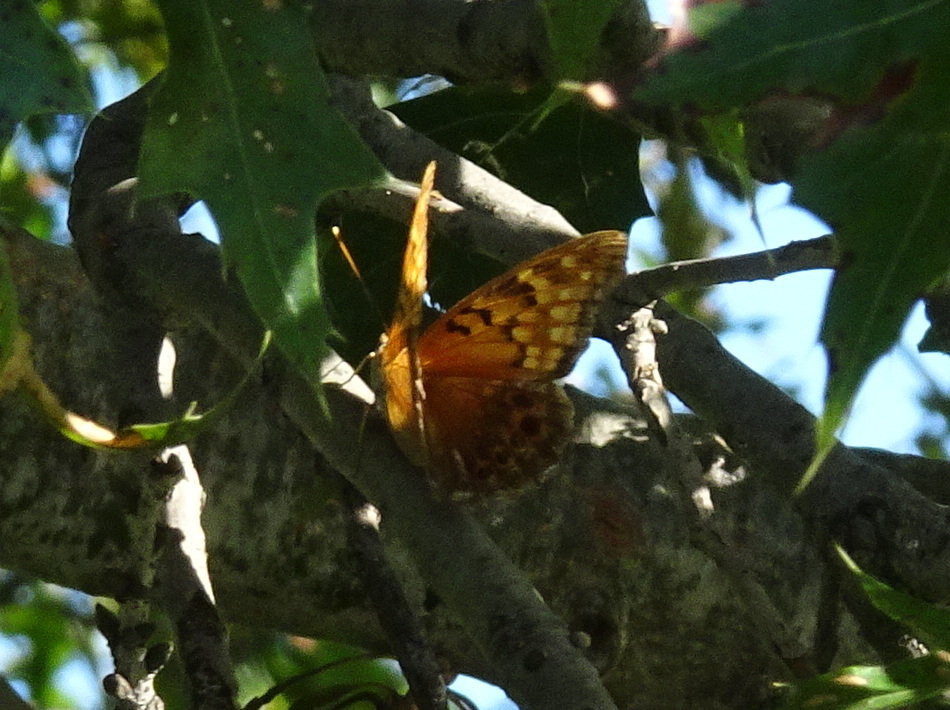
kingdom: Animalia
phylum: Arthropoda
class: Insecta
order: Lepidoptera
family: Nymphalidae
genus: Asterocampa
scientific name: Asterocampa clyton
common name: Tawny emperor
